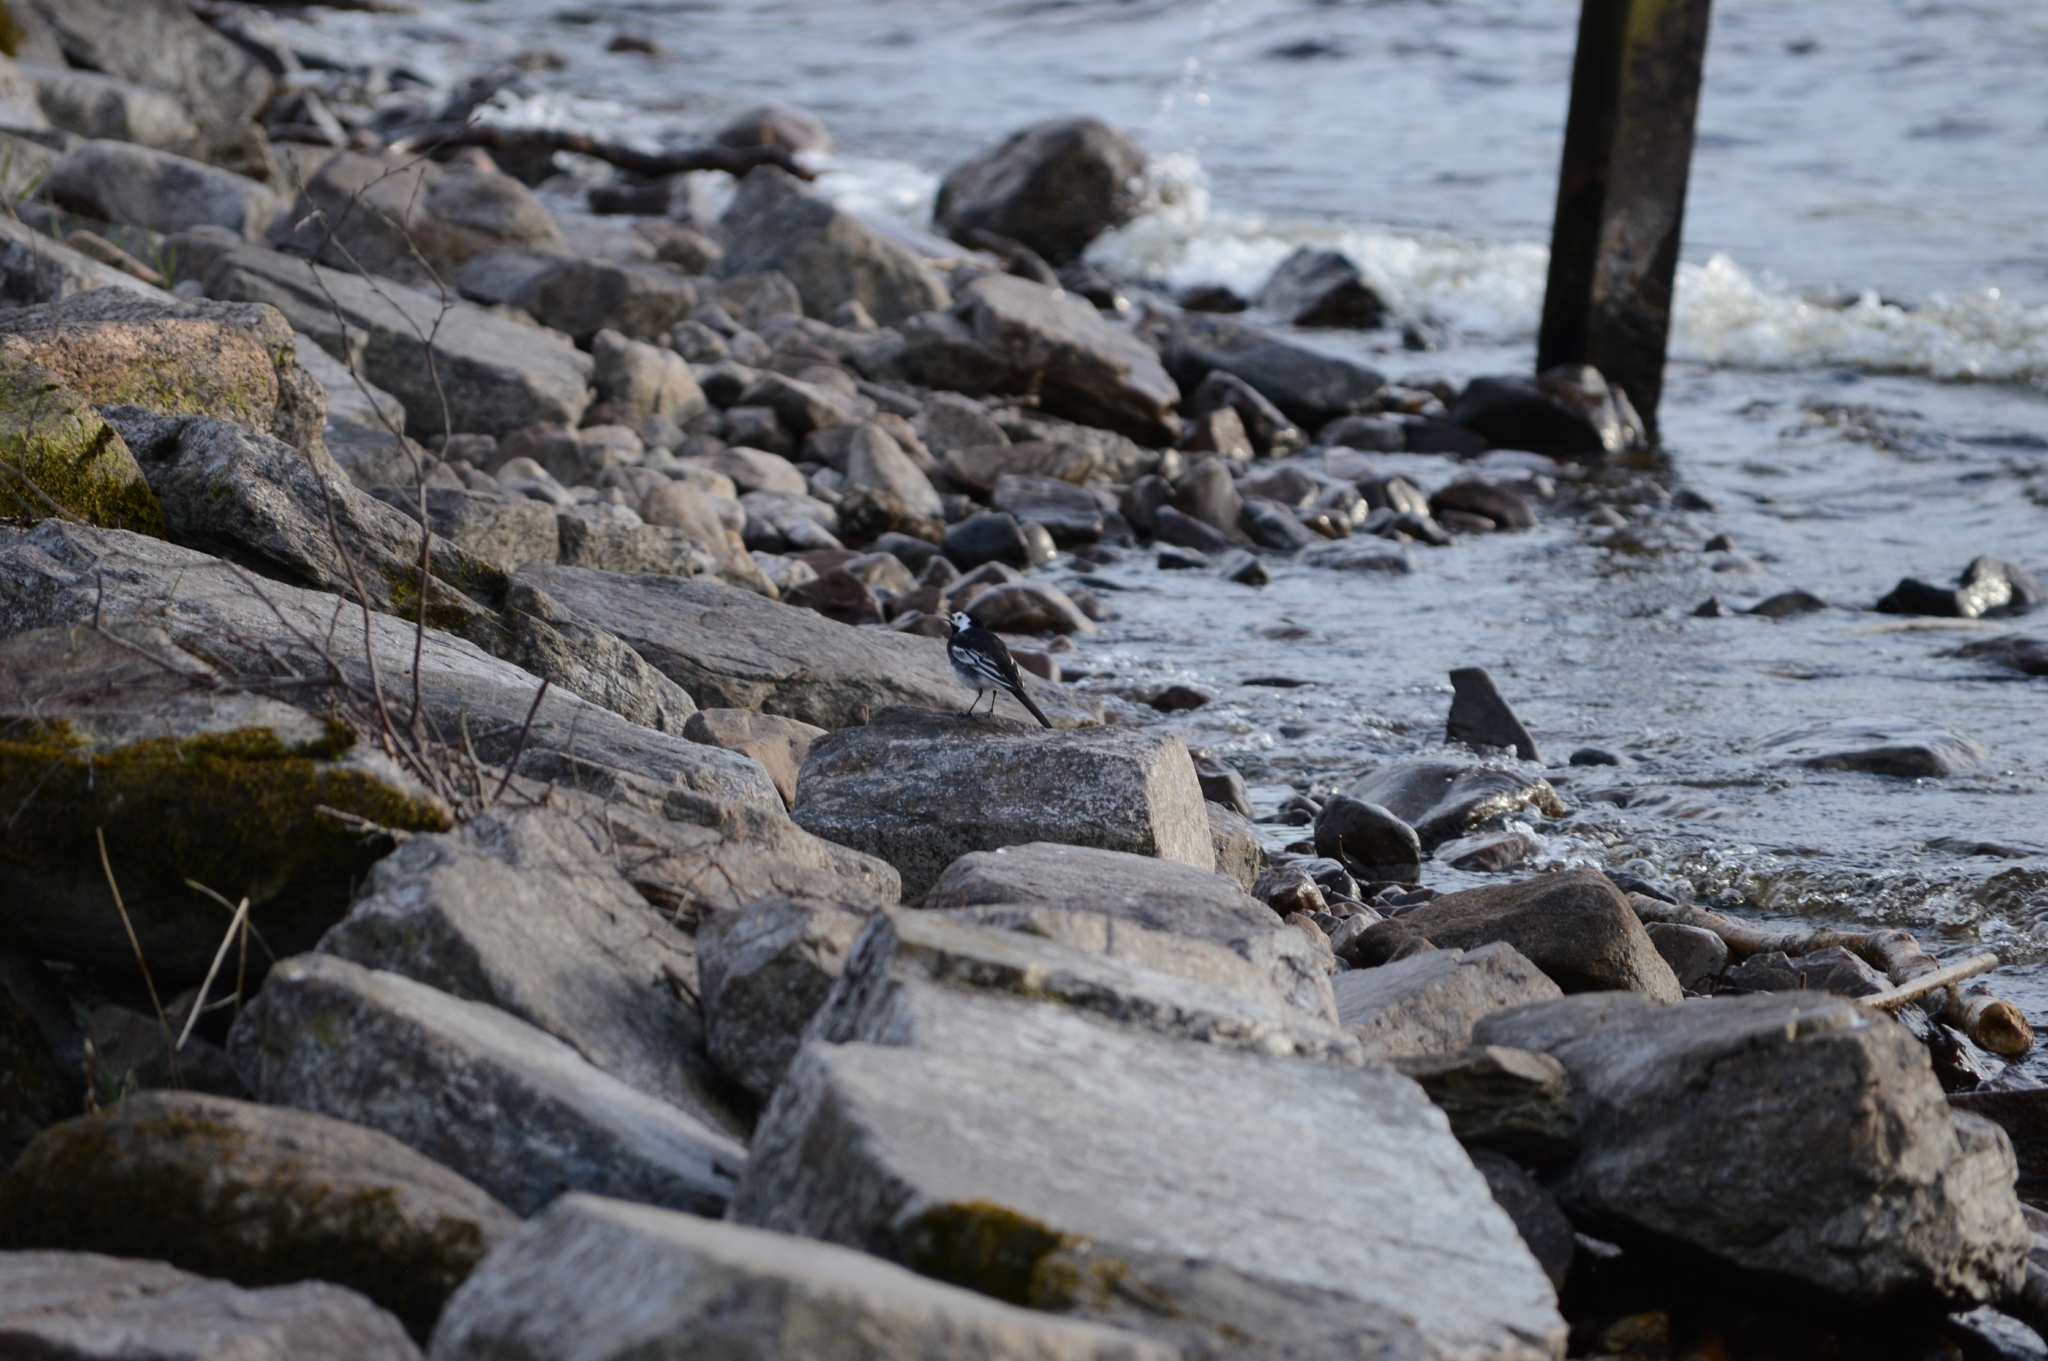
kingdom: Animalia
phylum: Chordata
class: Aves
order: Passeriformes
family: Motacillidae
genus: Motacilla
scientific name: Motacilla alba
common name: White wagtail
